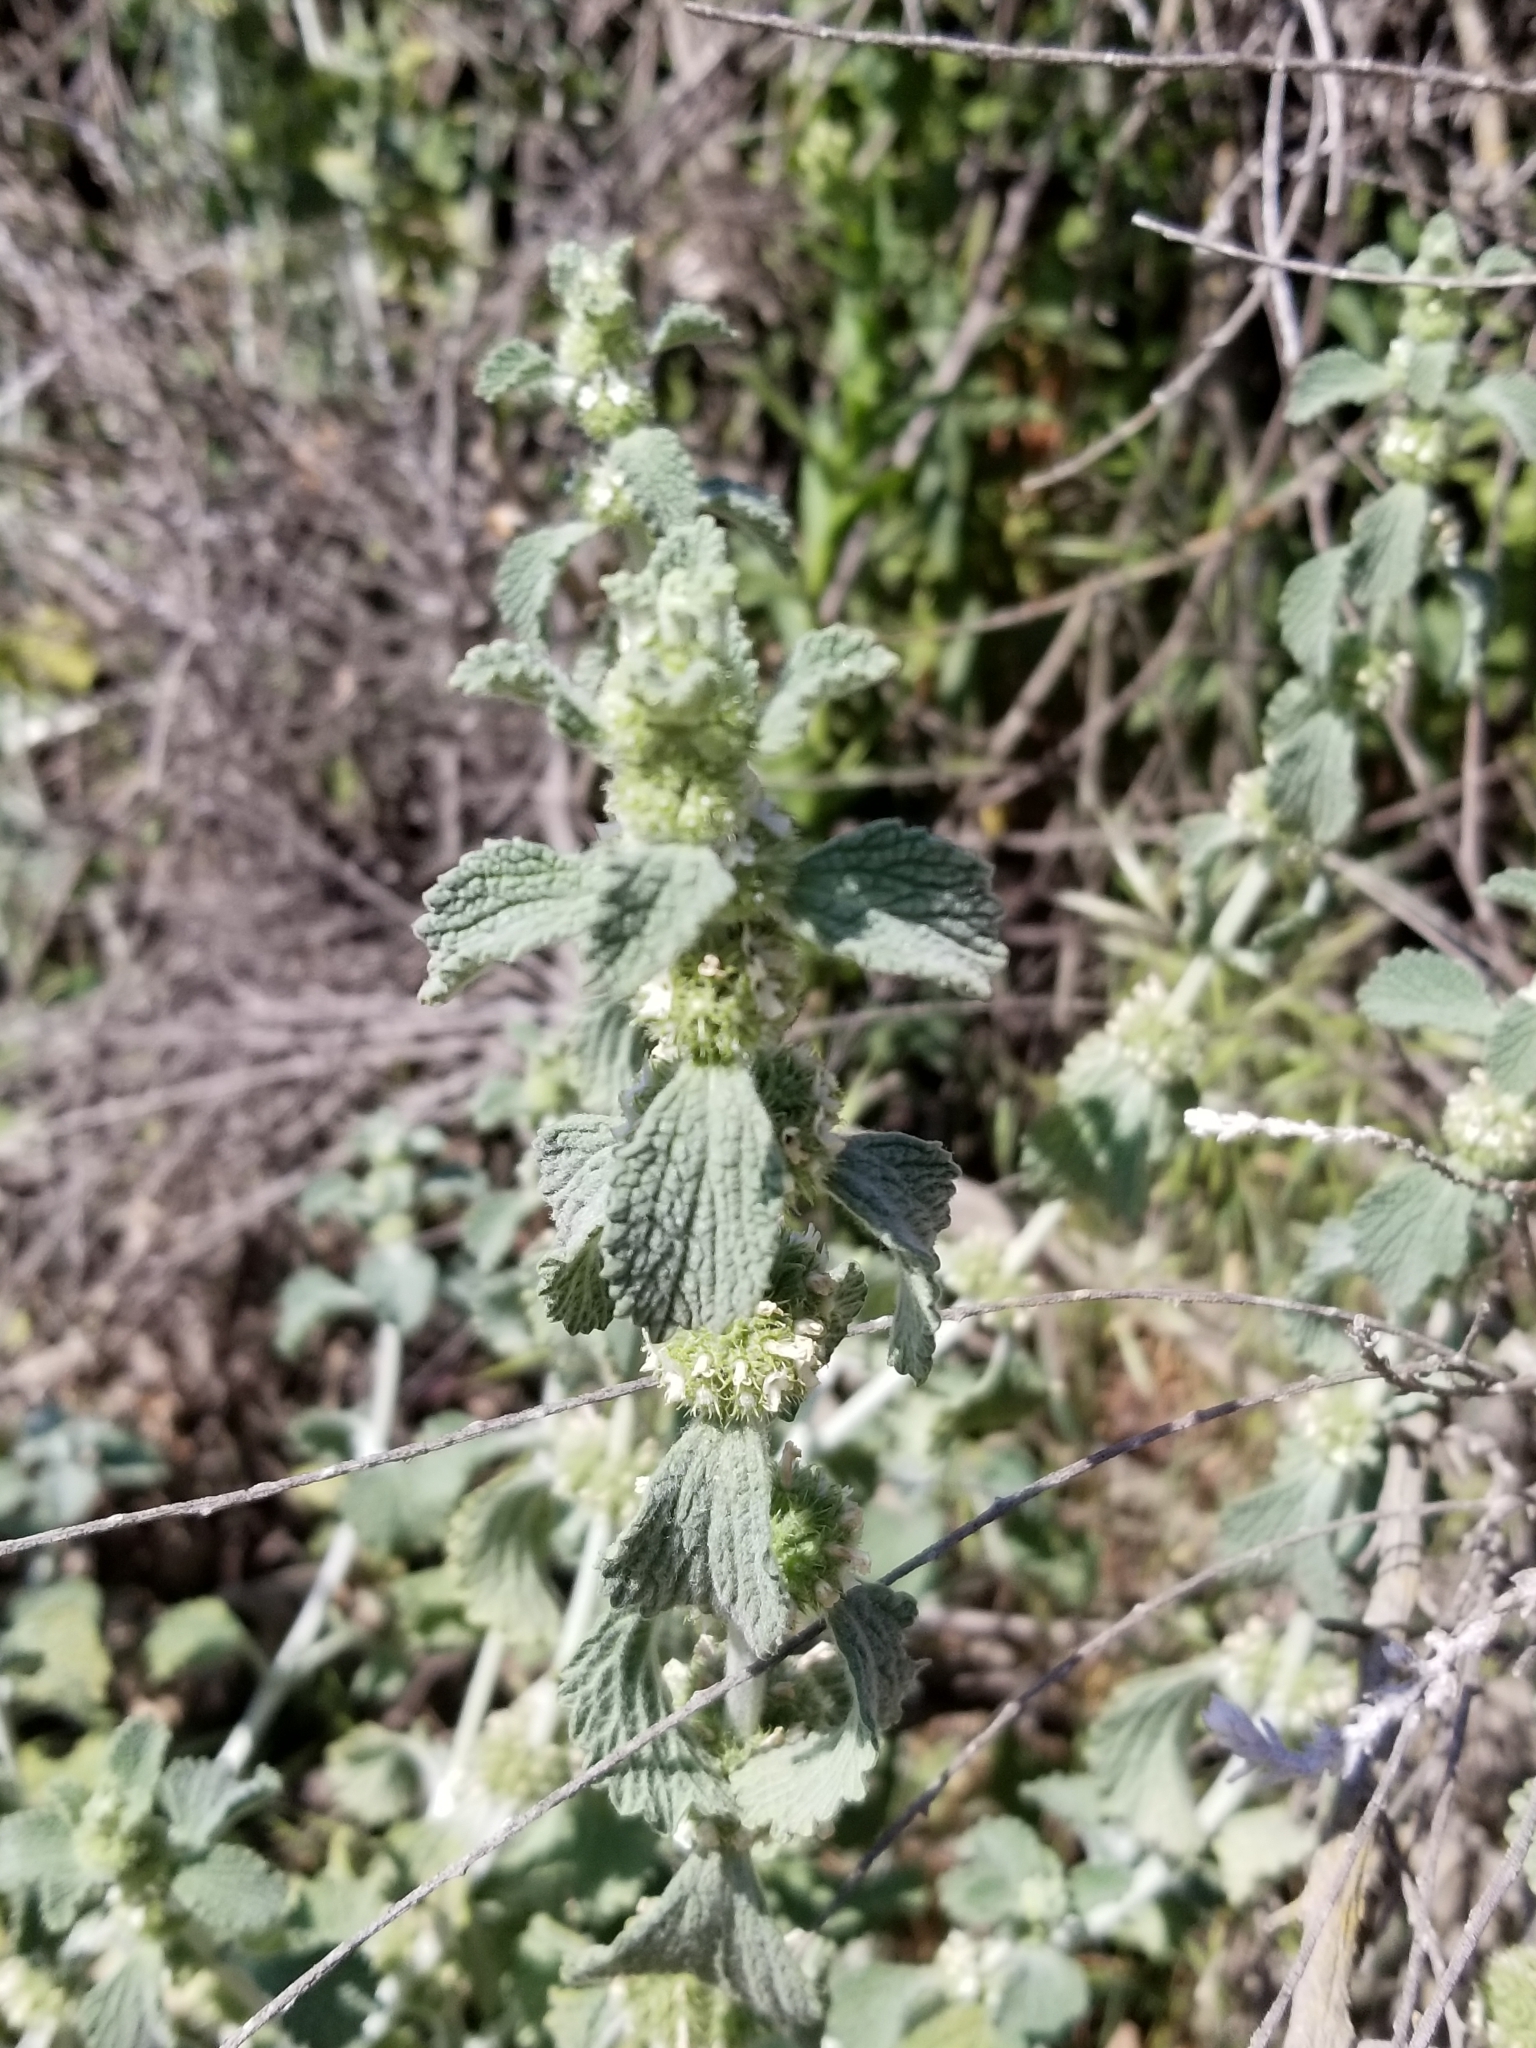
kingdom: Plantae
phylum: Tracheophyta
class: Magnoliopsida
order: Lamiales
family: Lamiaceae
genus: Marrubium
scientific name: Marrubium vulgare
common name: Horehound
